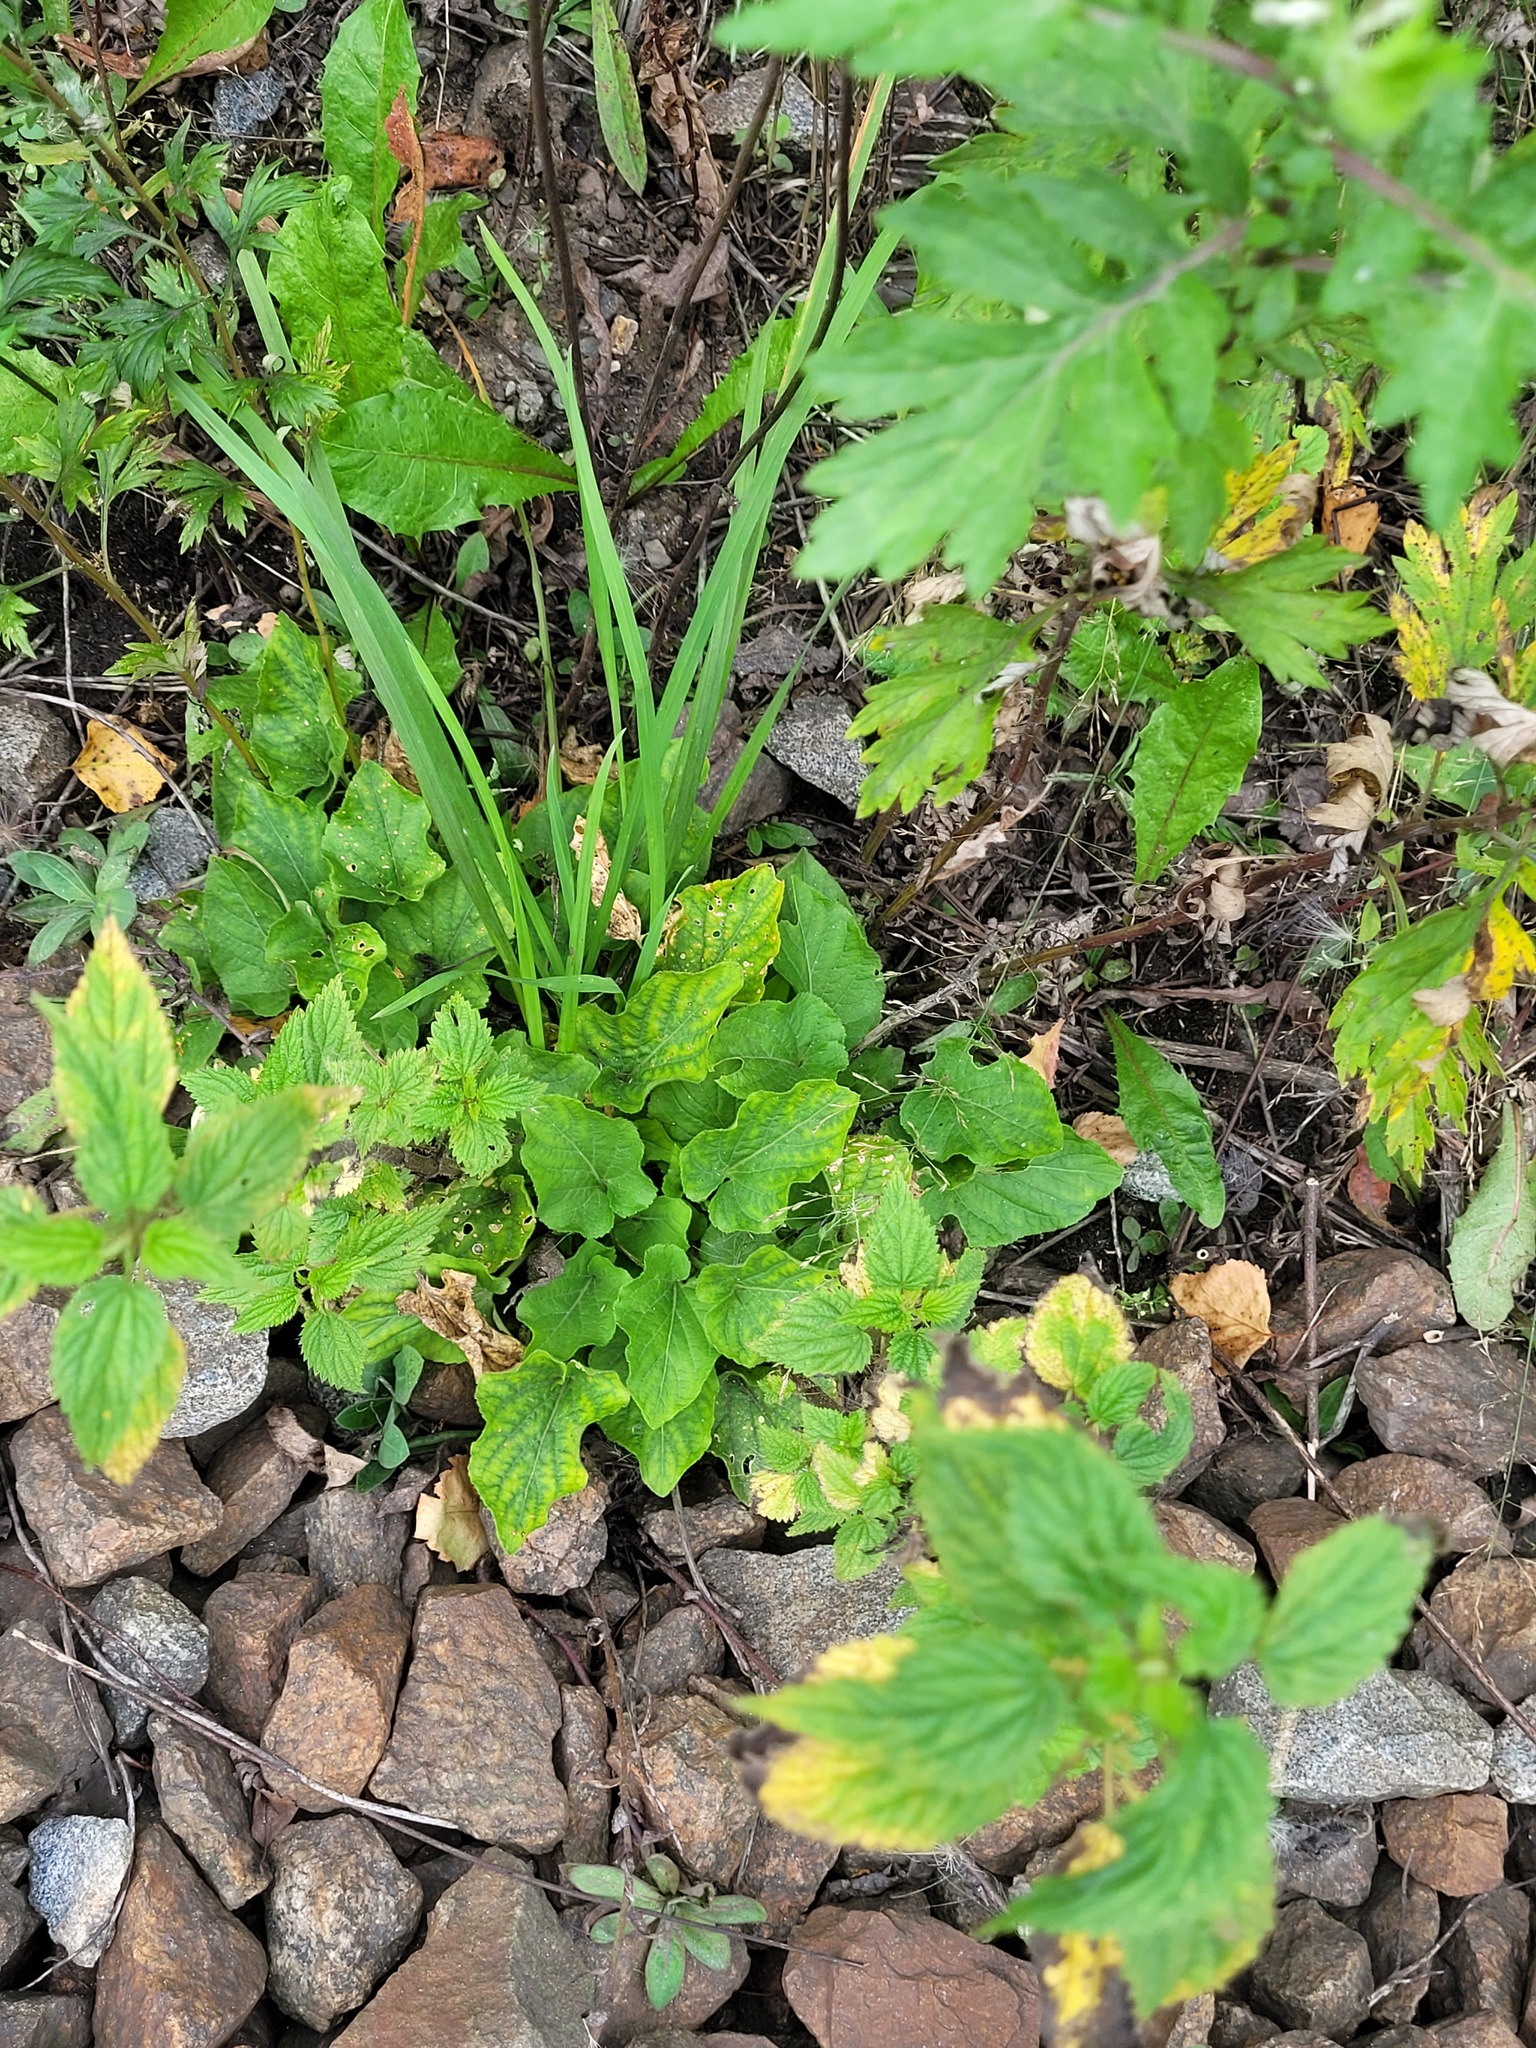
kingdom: Plantae
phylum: Tracheophyta
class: Magnoliopsida
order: Malpighiales
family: Violaceae
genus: Viola
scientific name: Viola hirta
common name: Hairy violet
